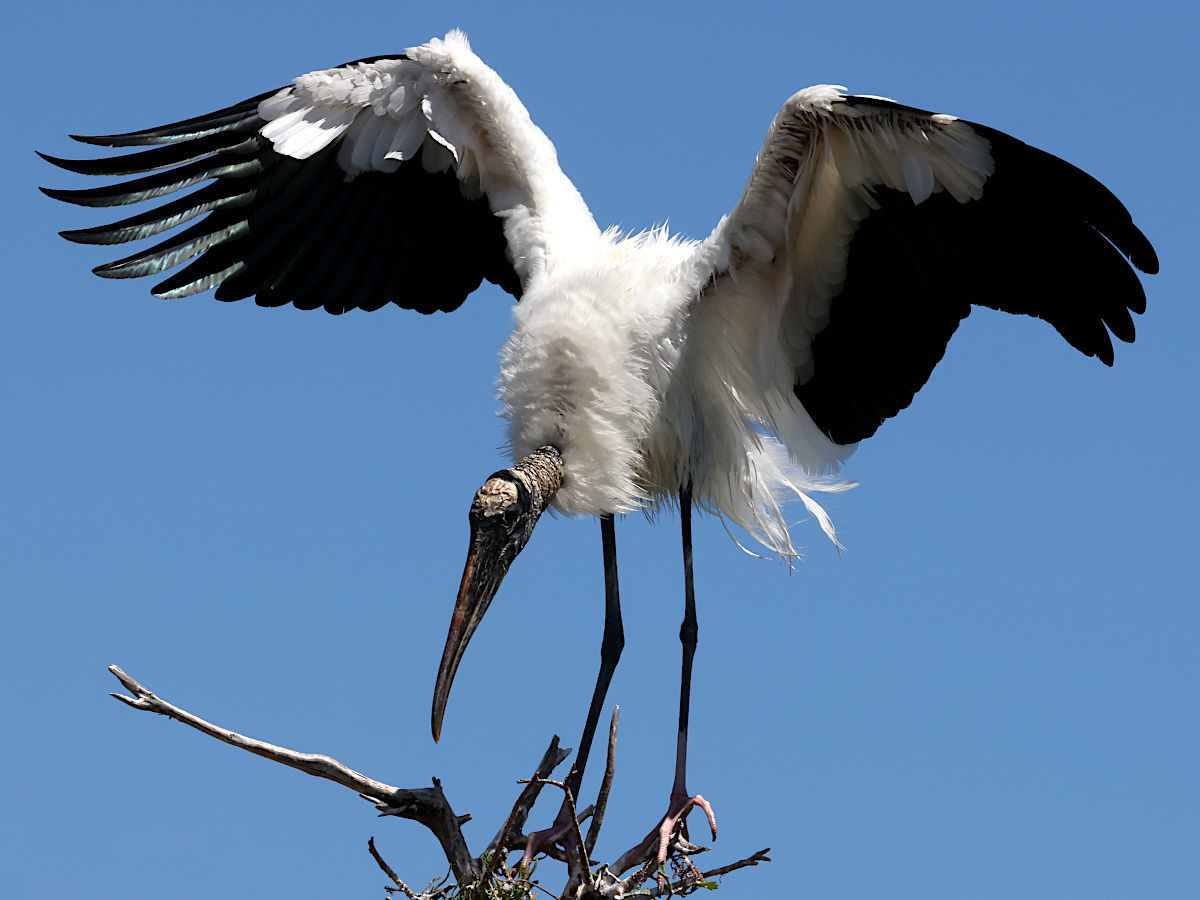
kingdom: Animalia
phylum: Chordata
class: Aves
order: Ciconiiformes
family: Ciconiidae
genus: Mycteria
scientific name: Mycteria americana
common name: Wood stork
